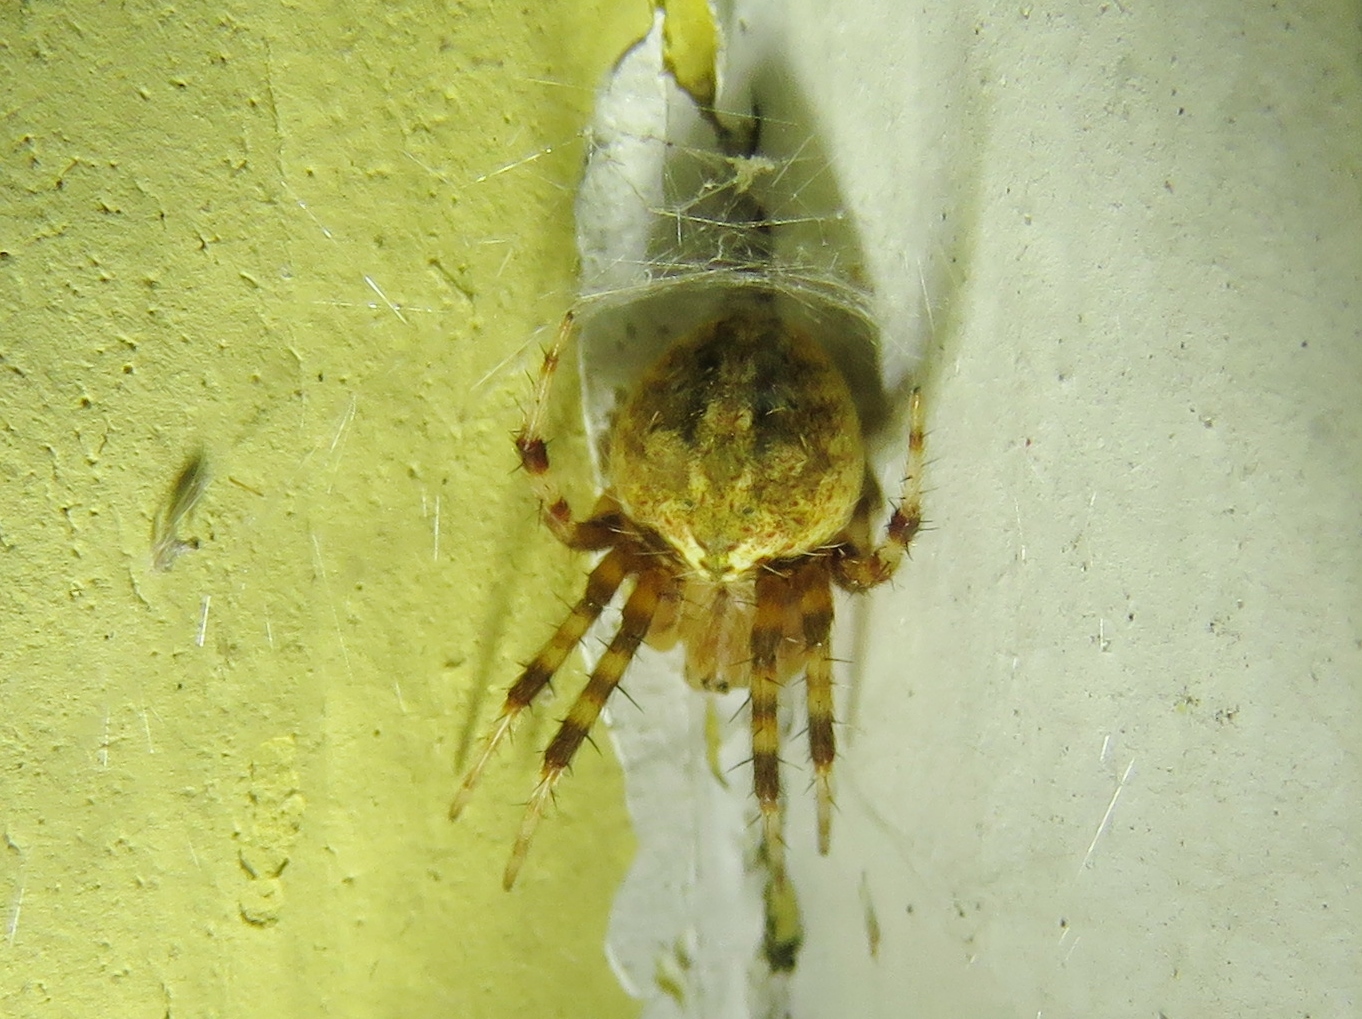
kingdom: Animalia
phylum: Arthropoda
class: Arachnida
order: Araneae
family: Araneidae
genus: Neoscona
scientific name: Neoscona crucifera
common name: Spotted orbweaver
